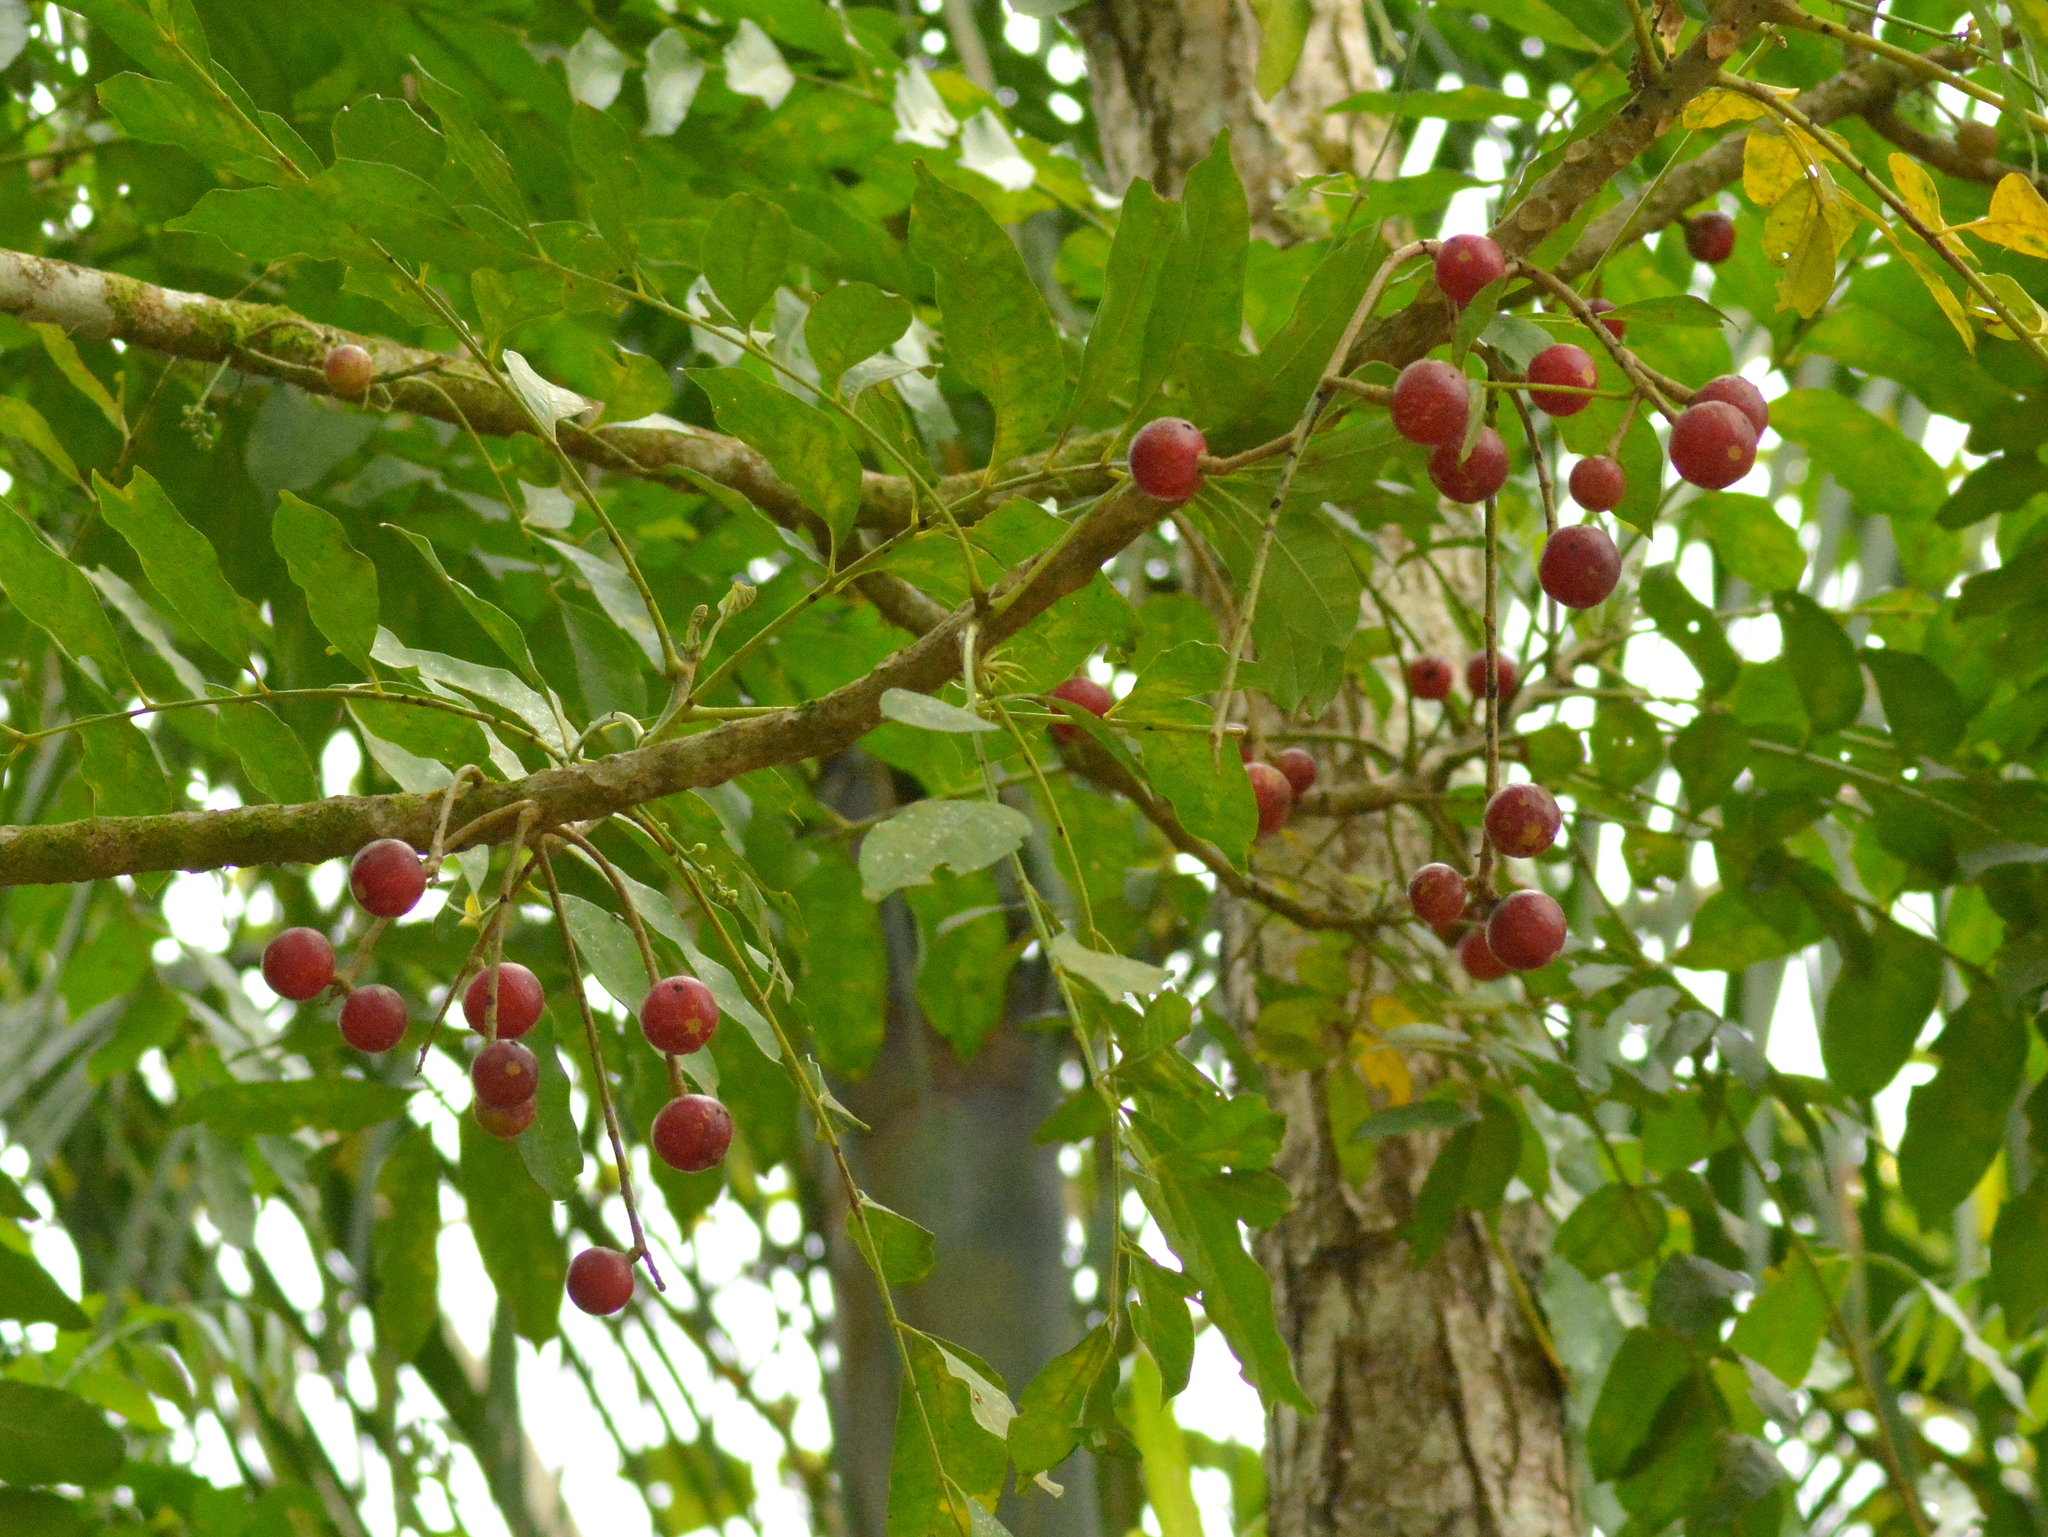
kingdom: Plantae
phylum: Tracheophyta
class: Magnoliopsida
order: Sapindales
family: Meliaceae
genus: Cabralea
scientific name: Cabralea canjerana
